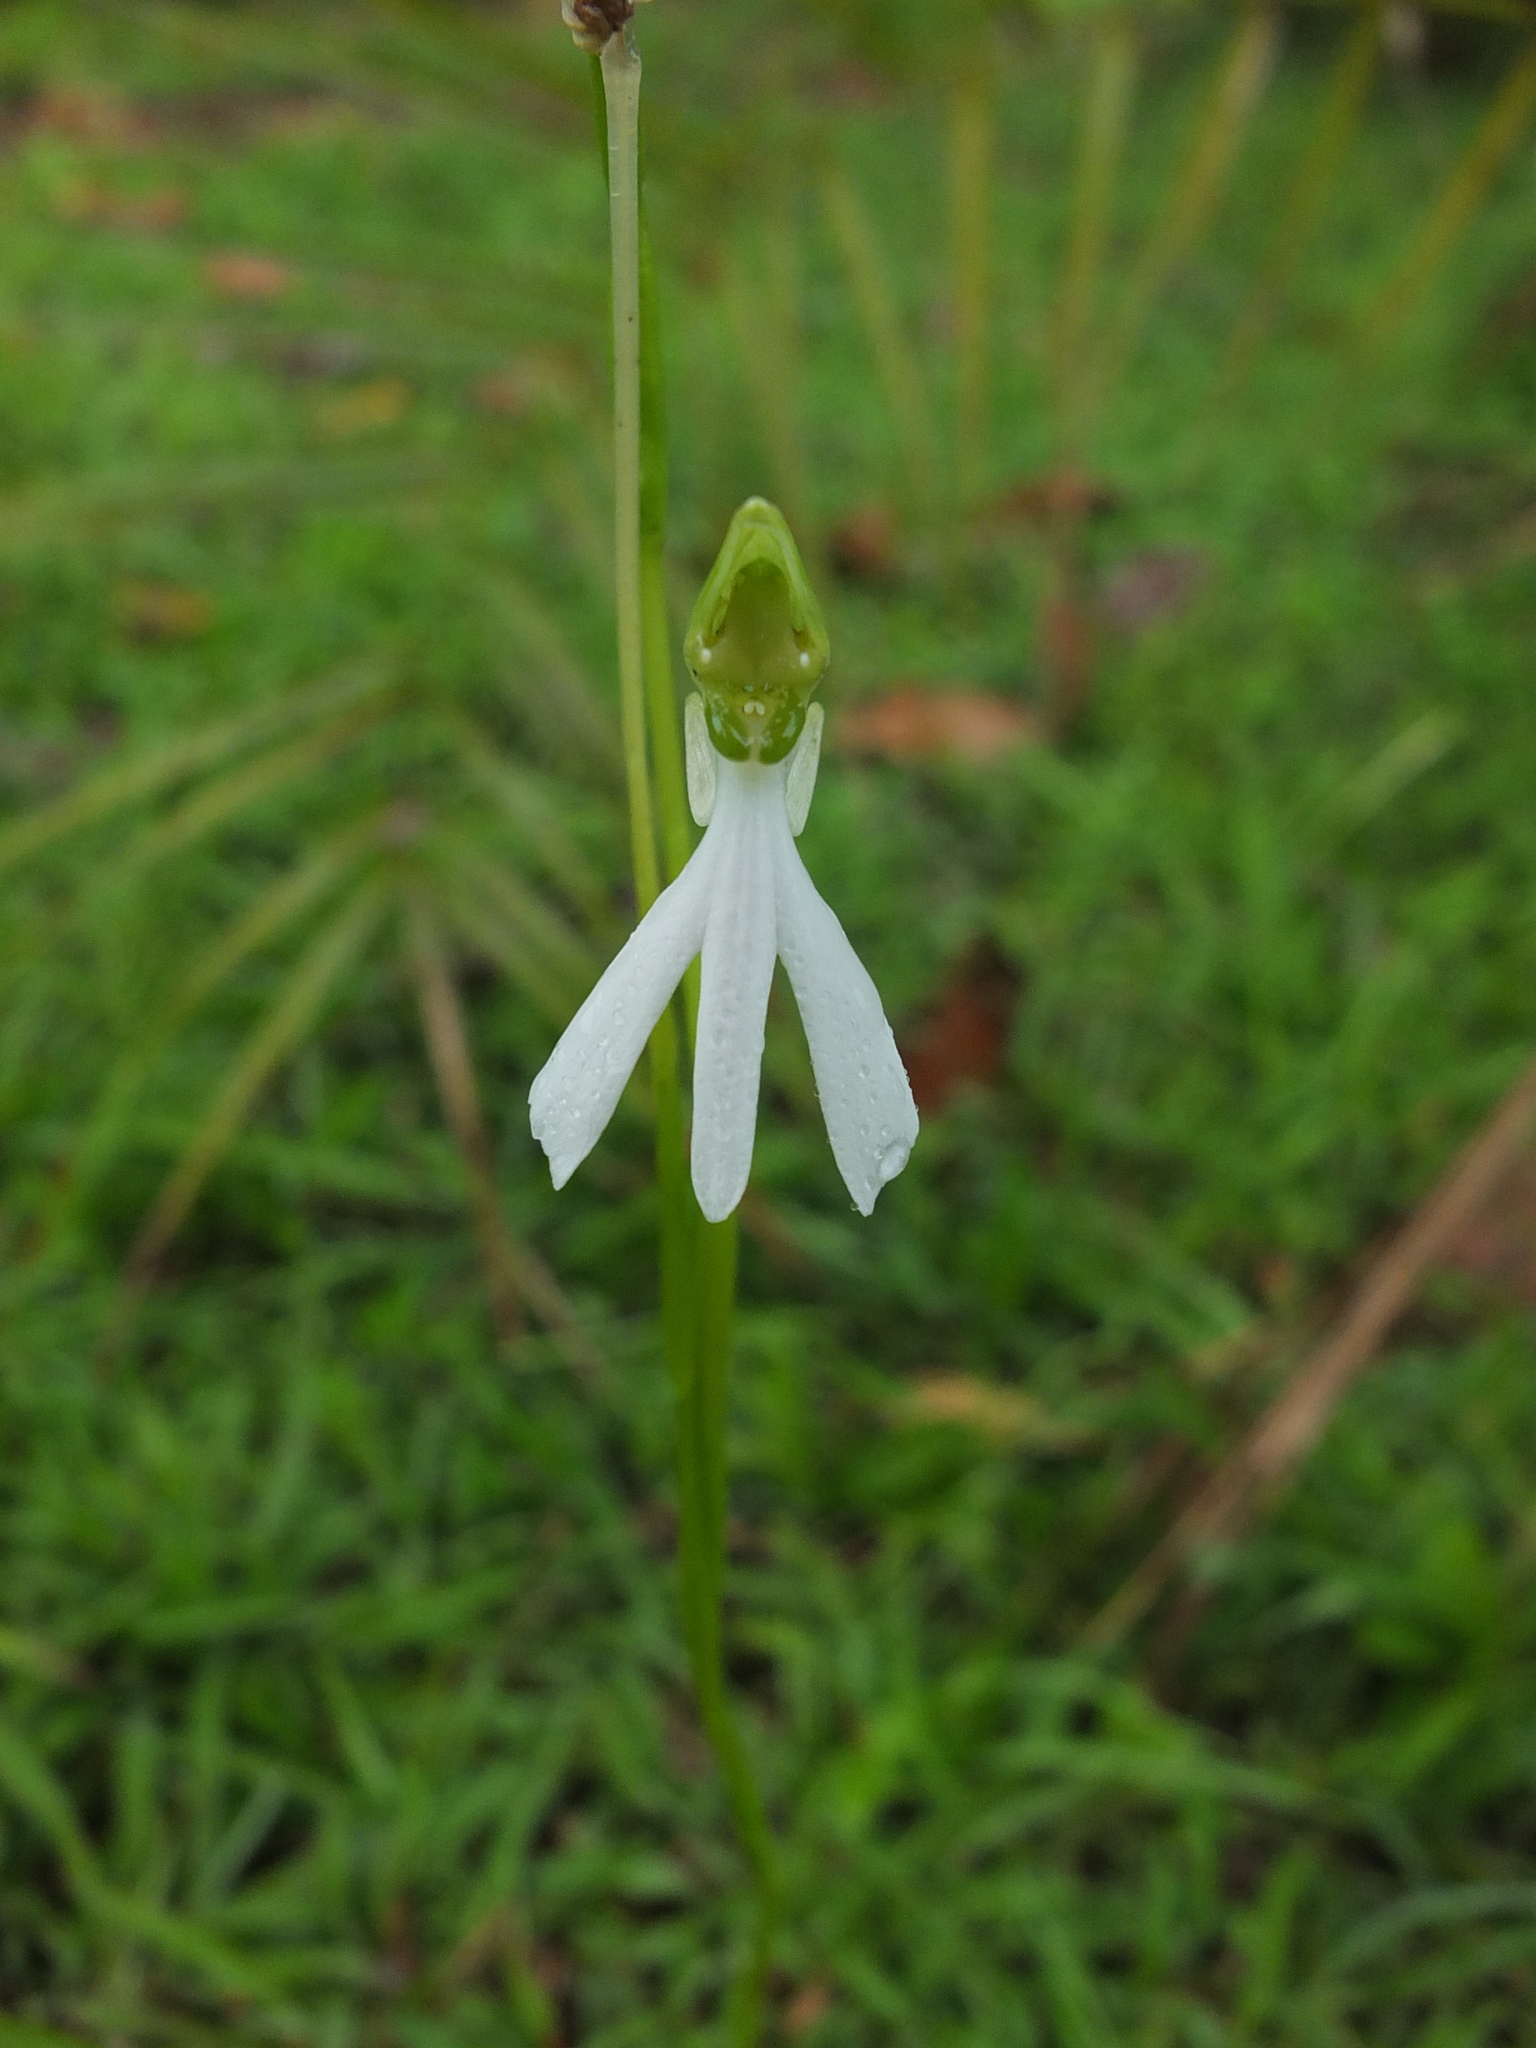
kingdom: Plantae
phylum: Tracheophyta
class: Liliopsida
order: Asparagales
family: Orchidaceae
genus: Habenaria
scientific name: Habenaria longicorniculata
